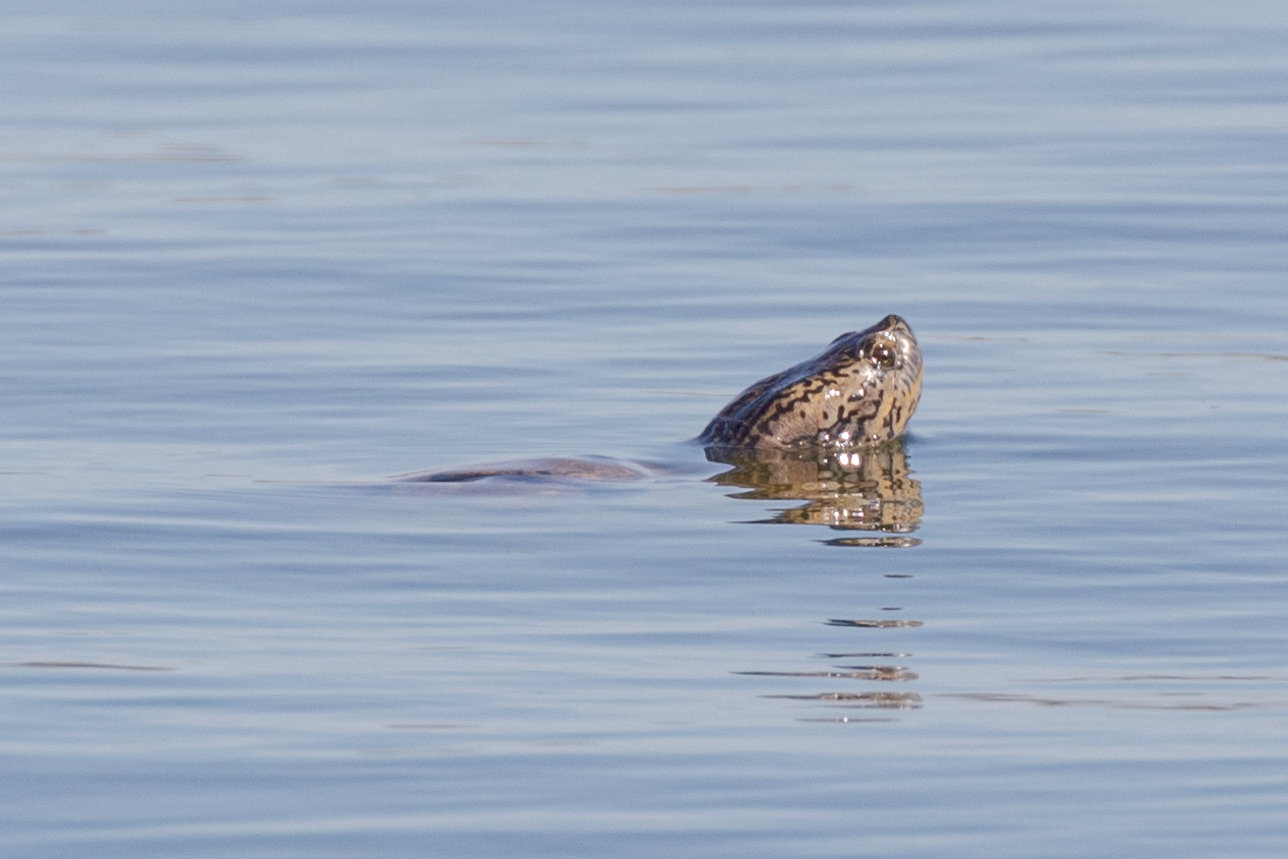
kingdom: Animalia
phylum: Chordata
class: Testudines
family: Emydidae
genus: Trachemys
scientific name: Trachemys scripta
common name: Slider
